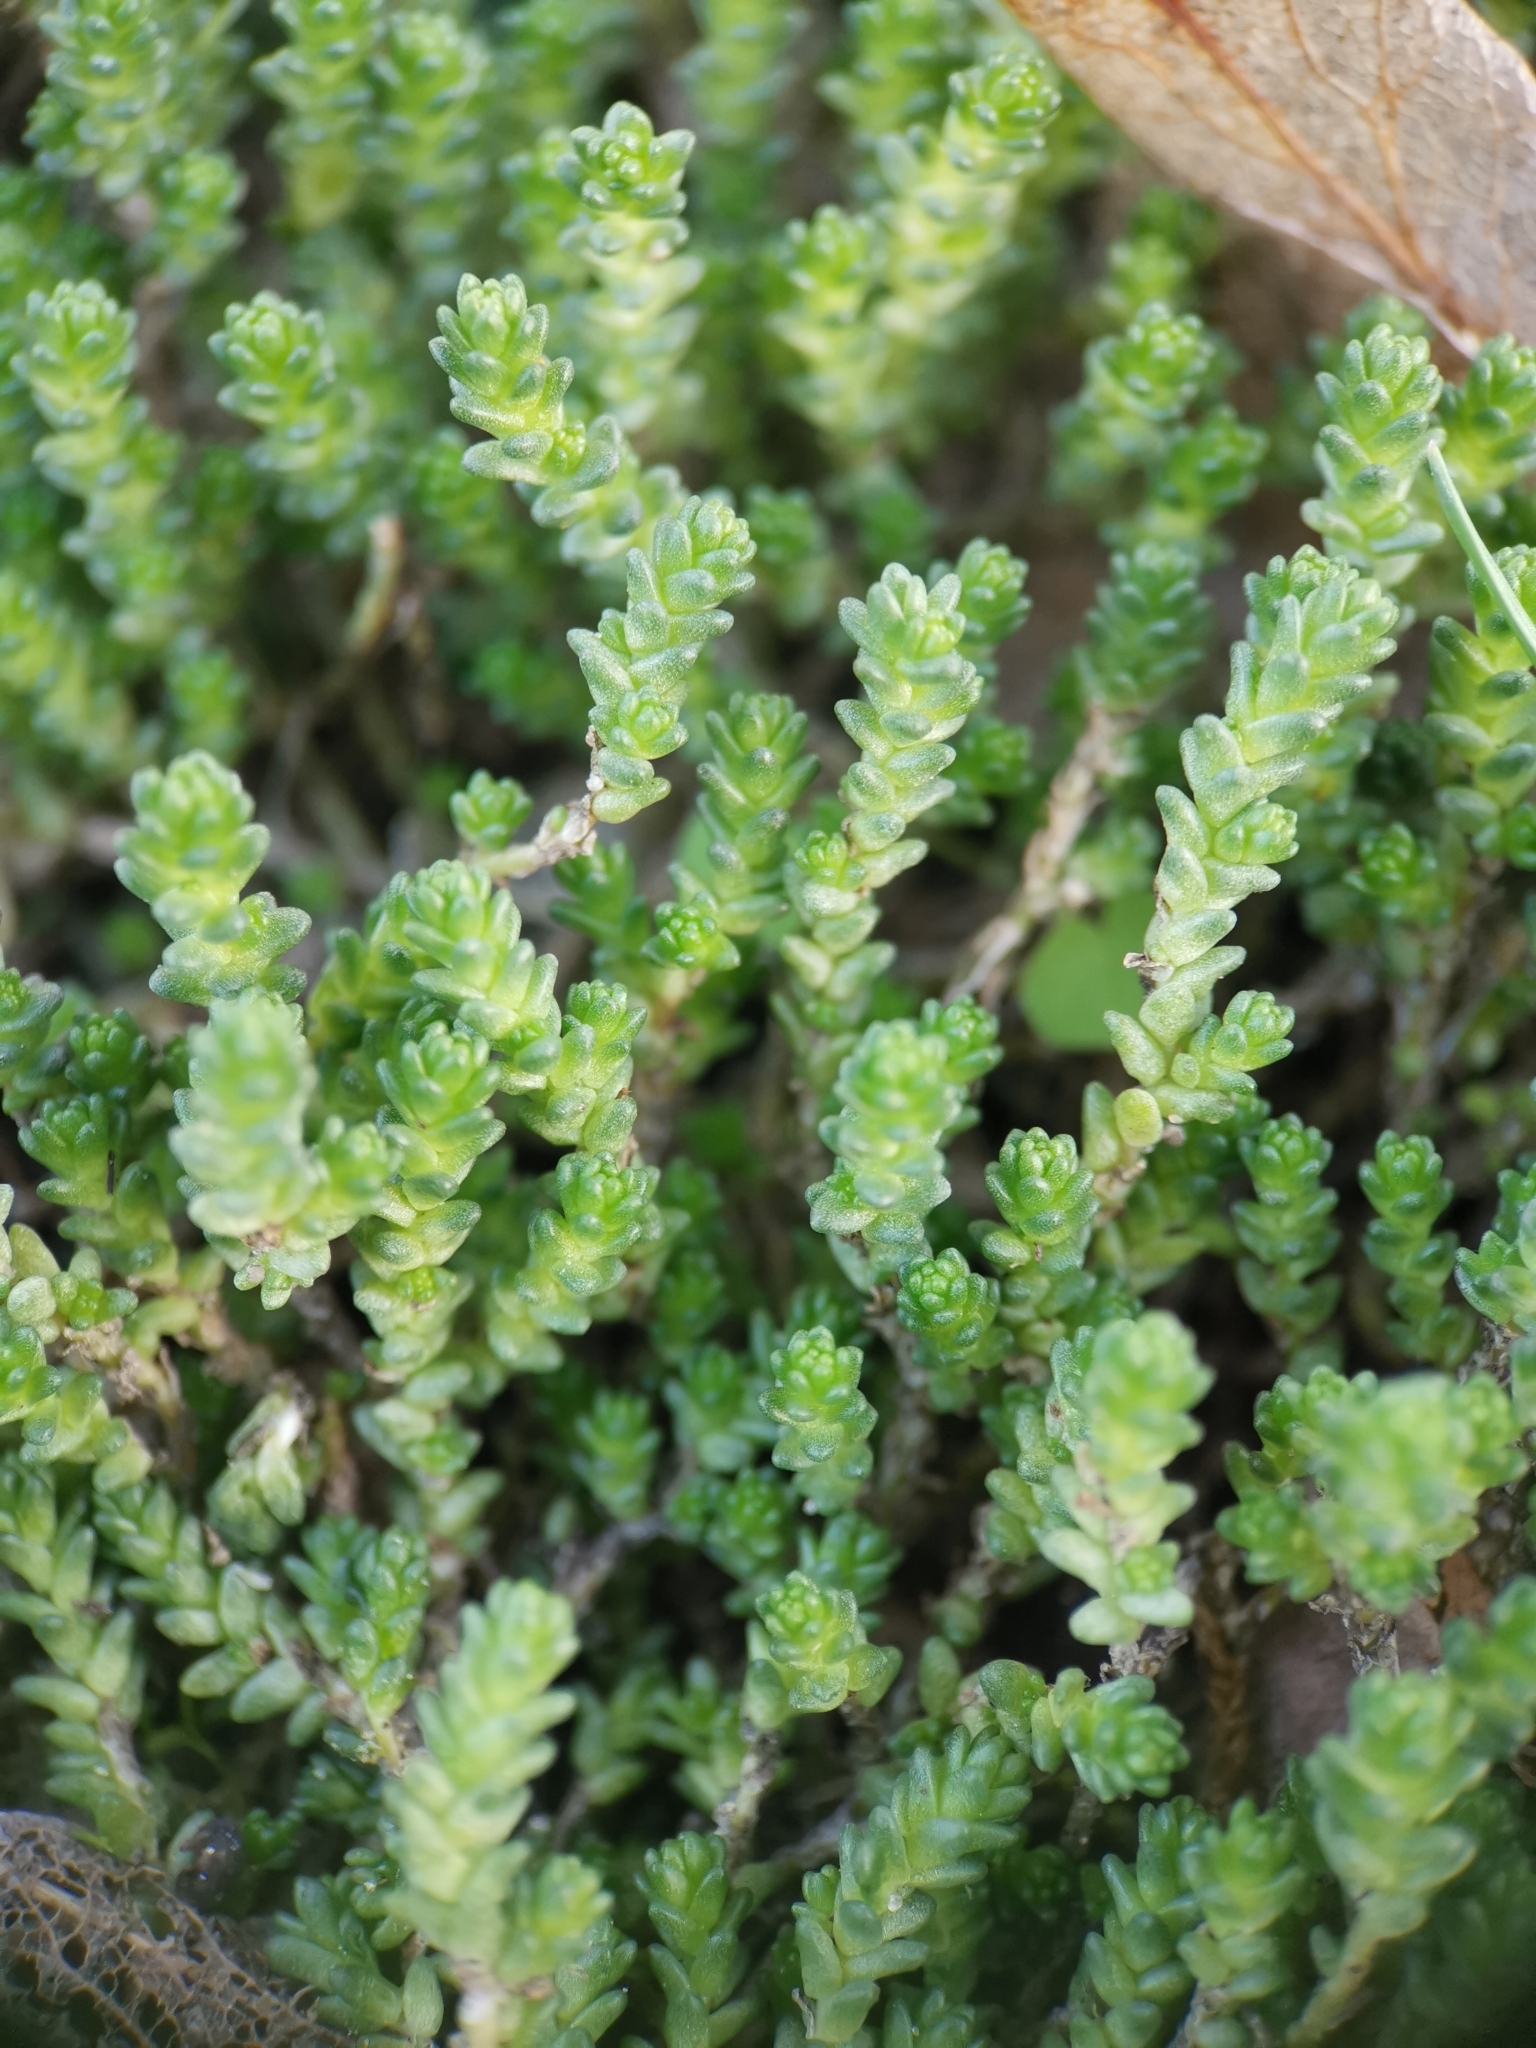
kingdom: Plantae
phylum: Tracheophyta
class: Magnoliopsida
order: Saxifragales
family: Crassulaceae
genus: Sedum
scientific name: Sedum acre
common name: Biting stonecrop
